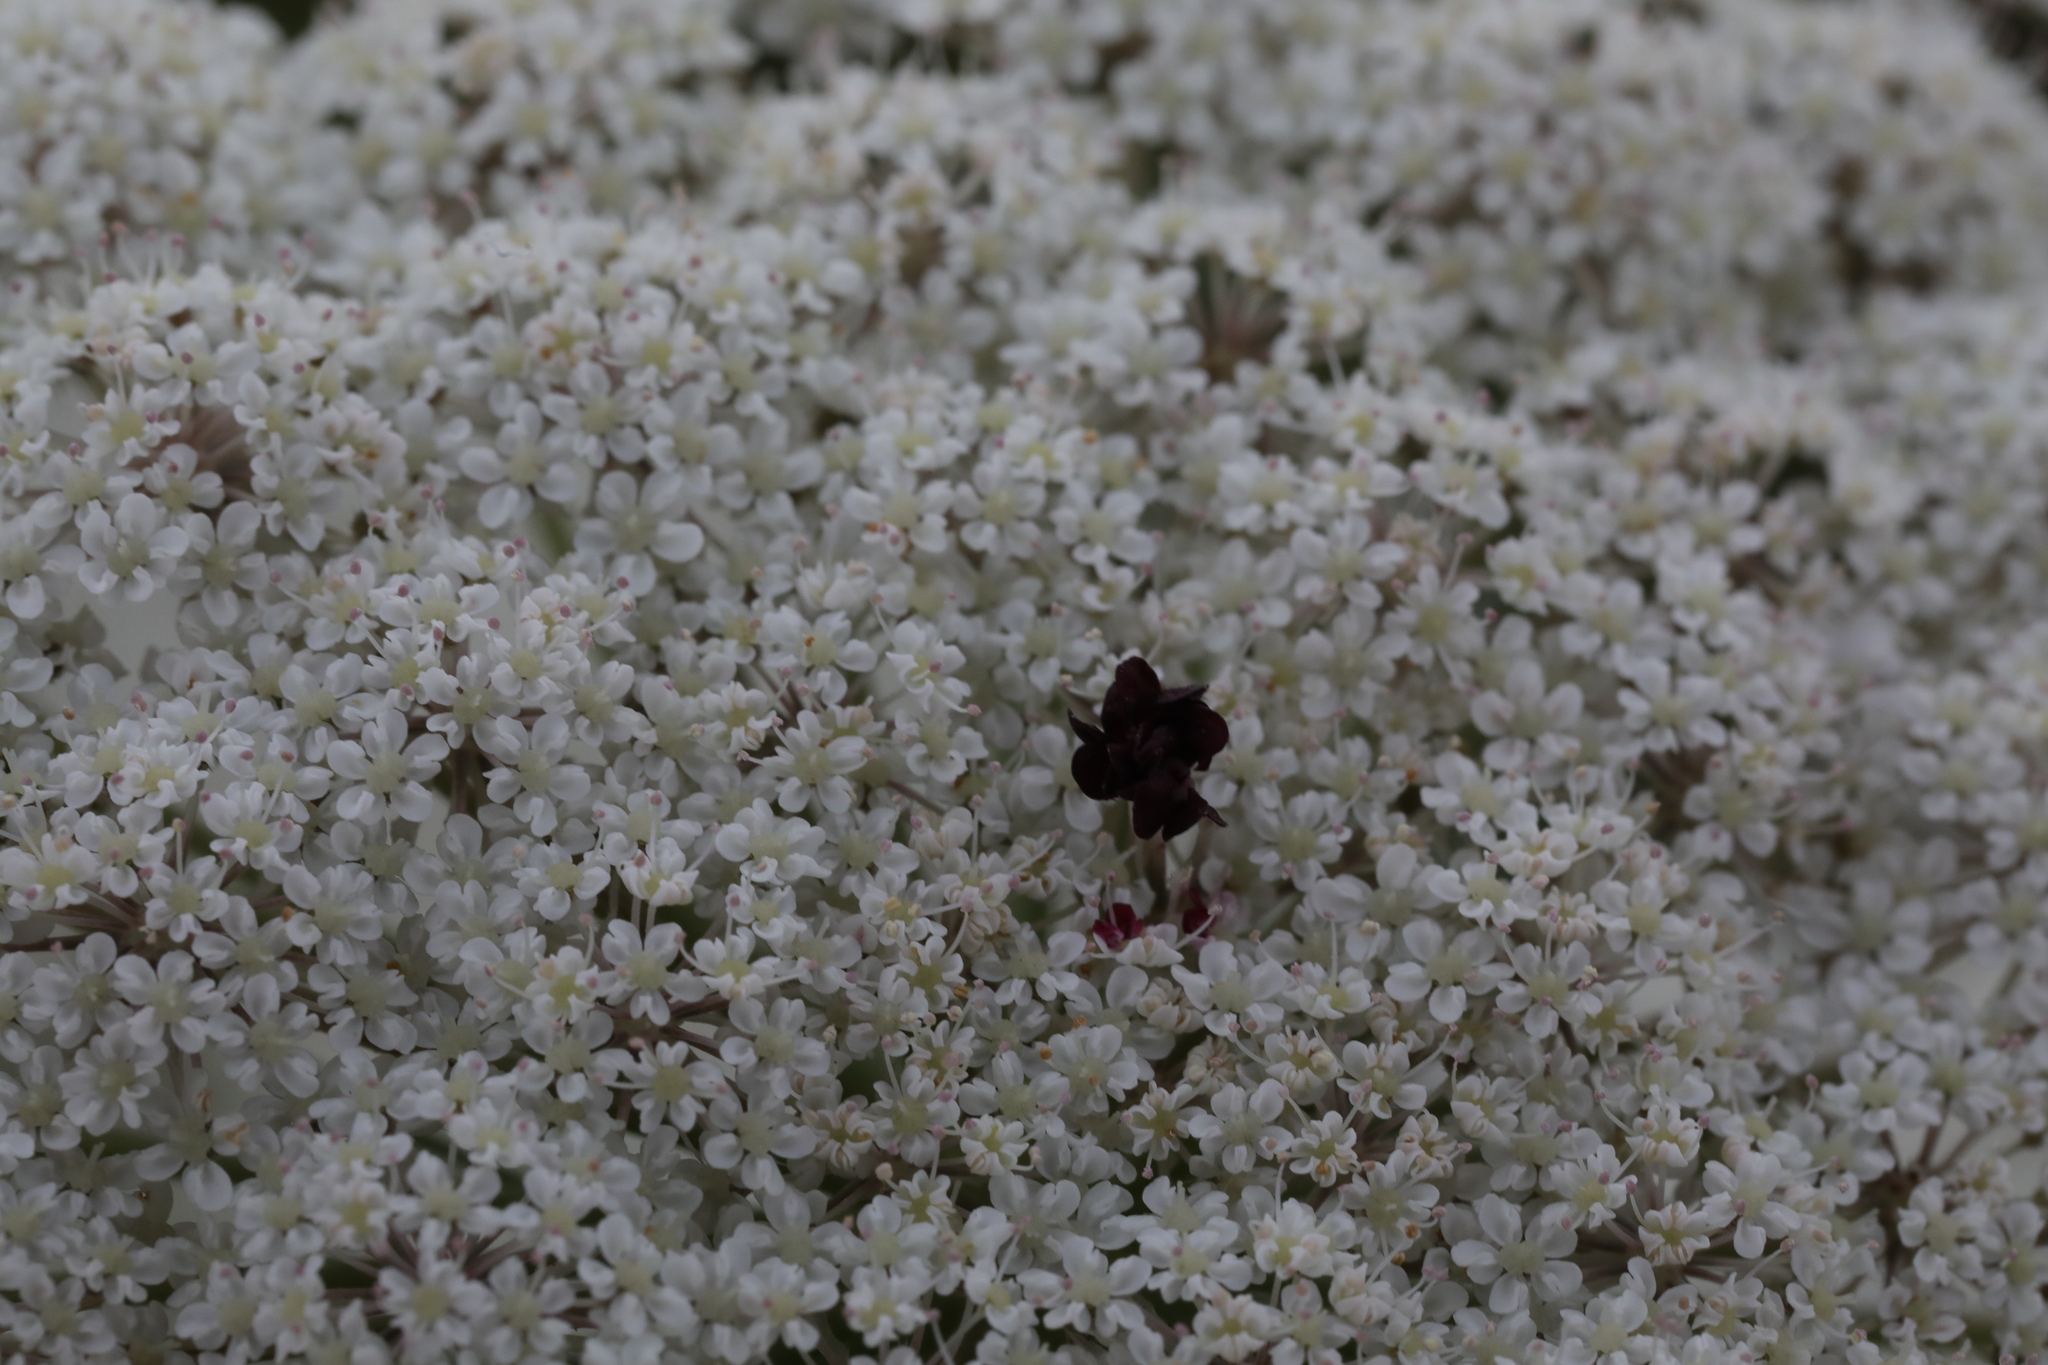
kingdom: Plantae
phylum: Tracheophyta
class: Magnoliopsida
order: Apiales
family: Apiaceae
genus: Daucus
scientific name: Daucus carota
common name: Wild carrot
